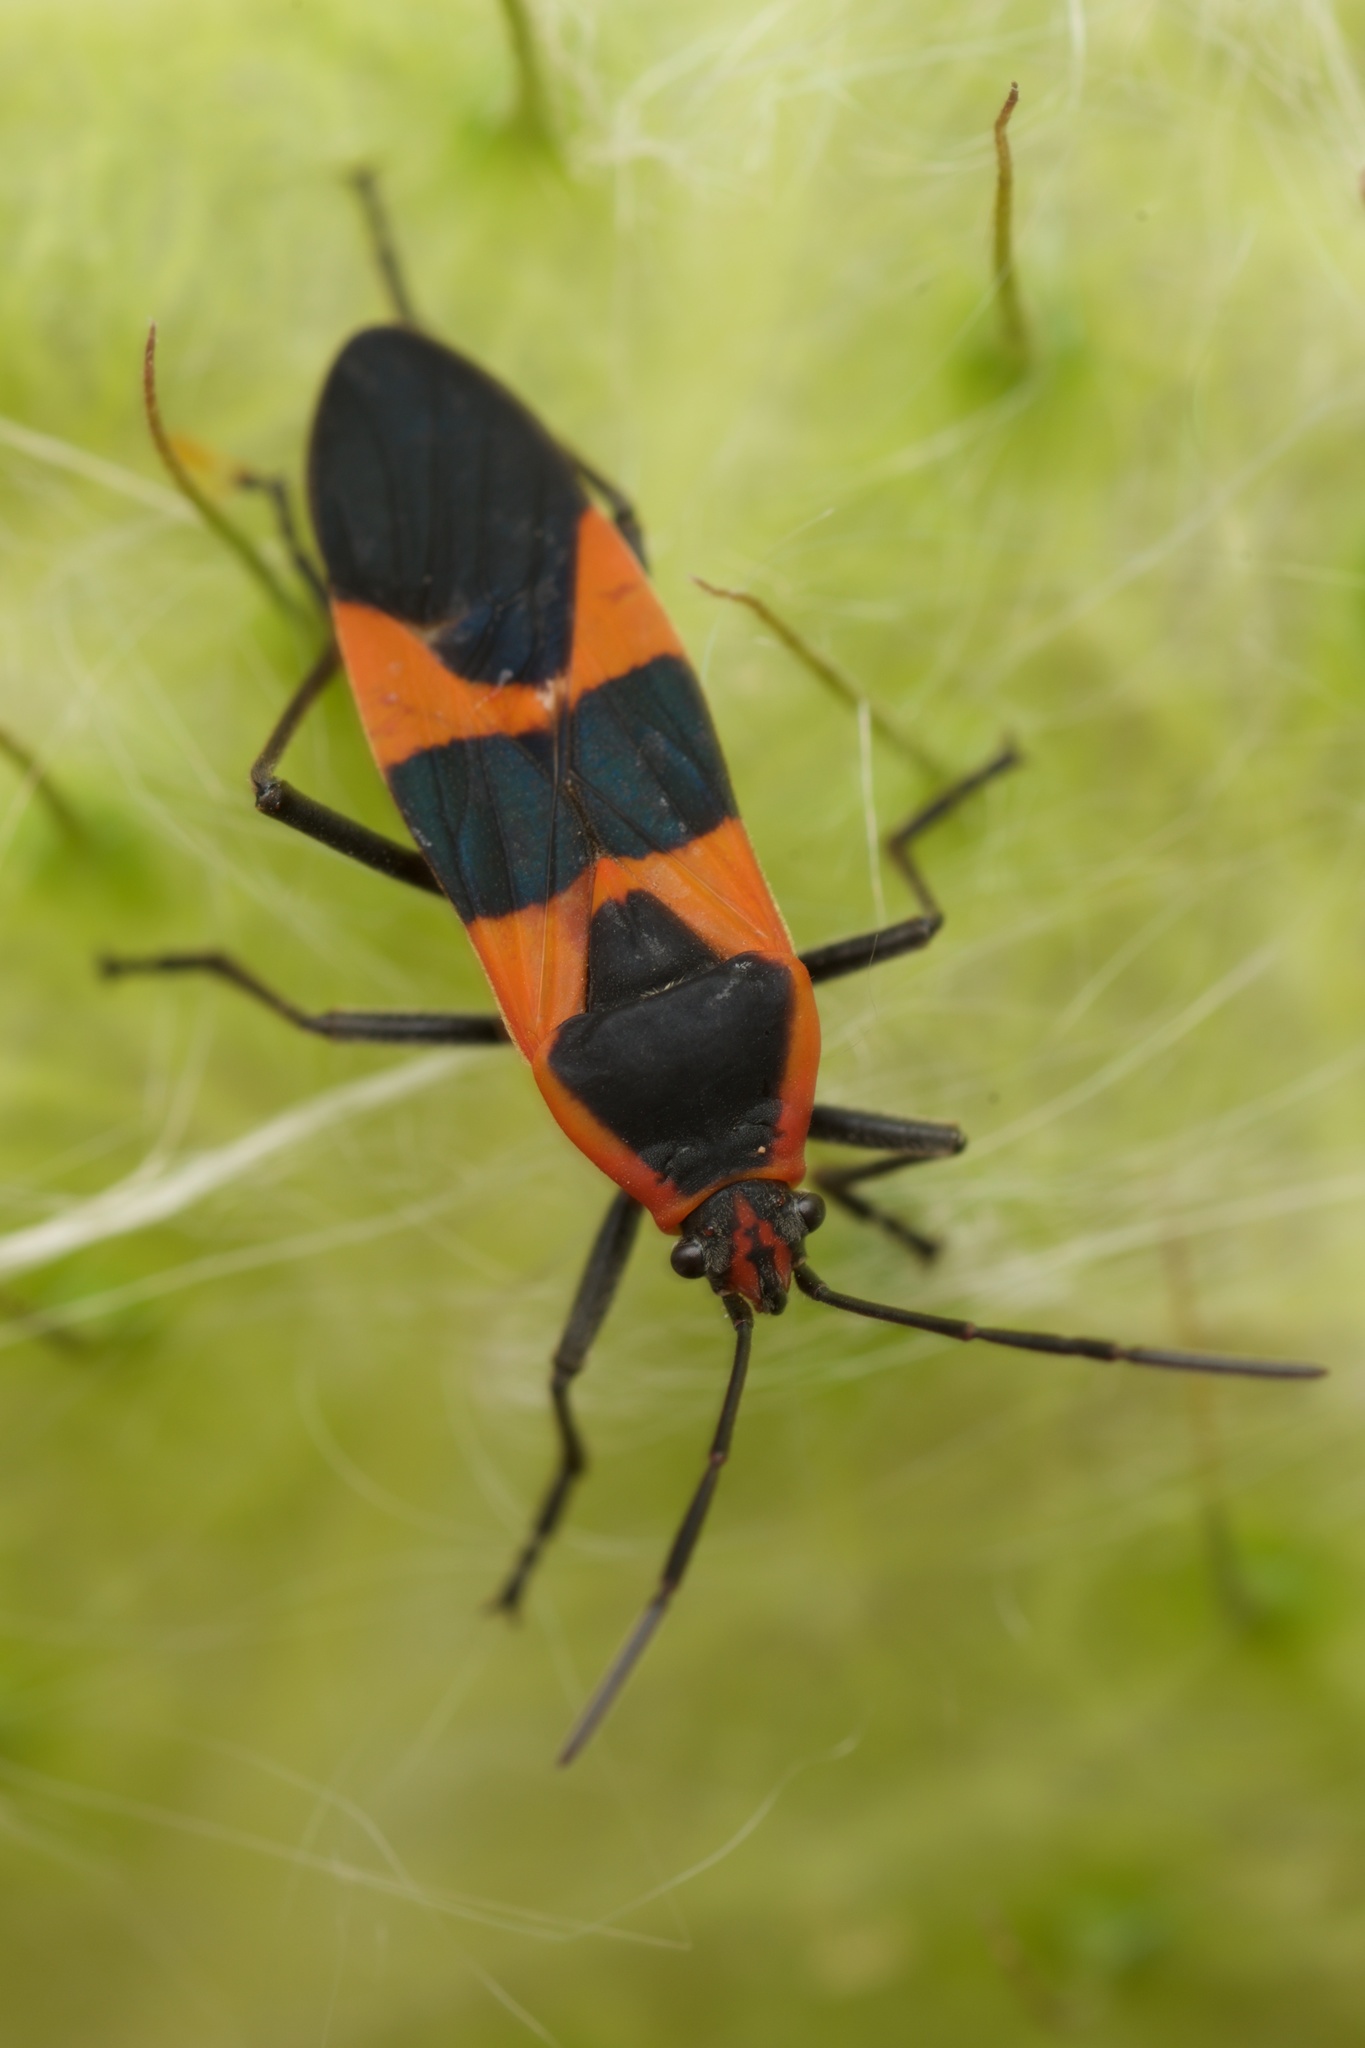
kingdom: Animalia
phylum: Arthropoda
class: Insecta
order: Hemiptera
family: Lygaeidae
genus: Oncopeltus
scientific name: Oncopeltus fasciatus
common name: Large milkweed bug
